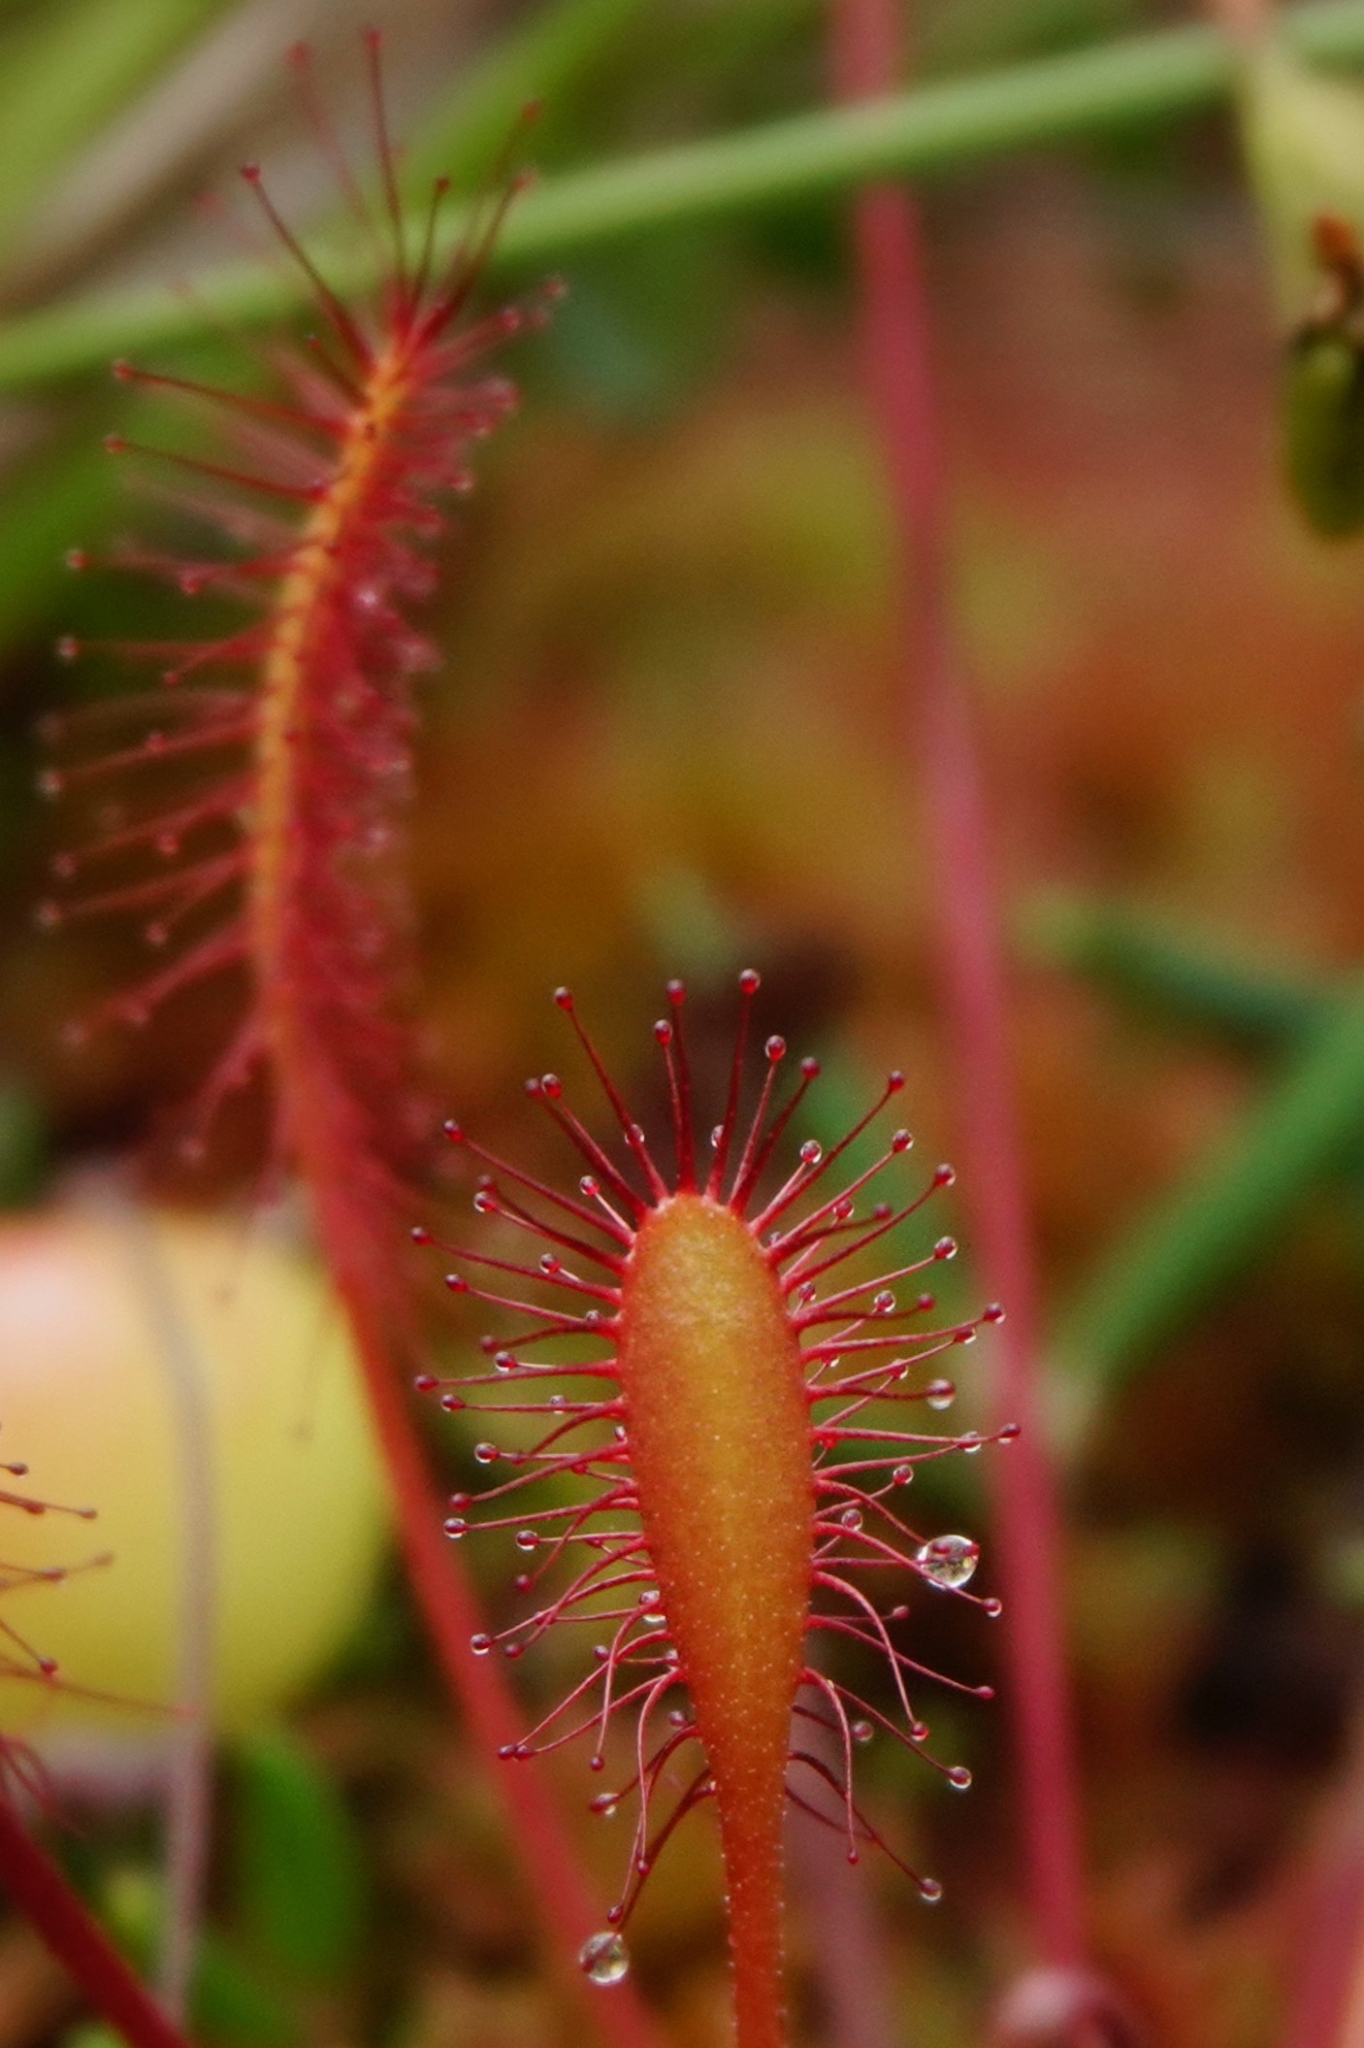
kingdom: Plantae
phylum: Tracheophyta
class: Magnoliopsida
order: Caryophyllales
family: Droseraceae
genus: Drosera
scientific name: Drosera anglica
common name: Great sundew
